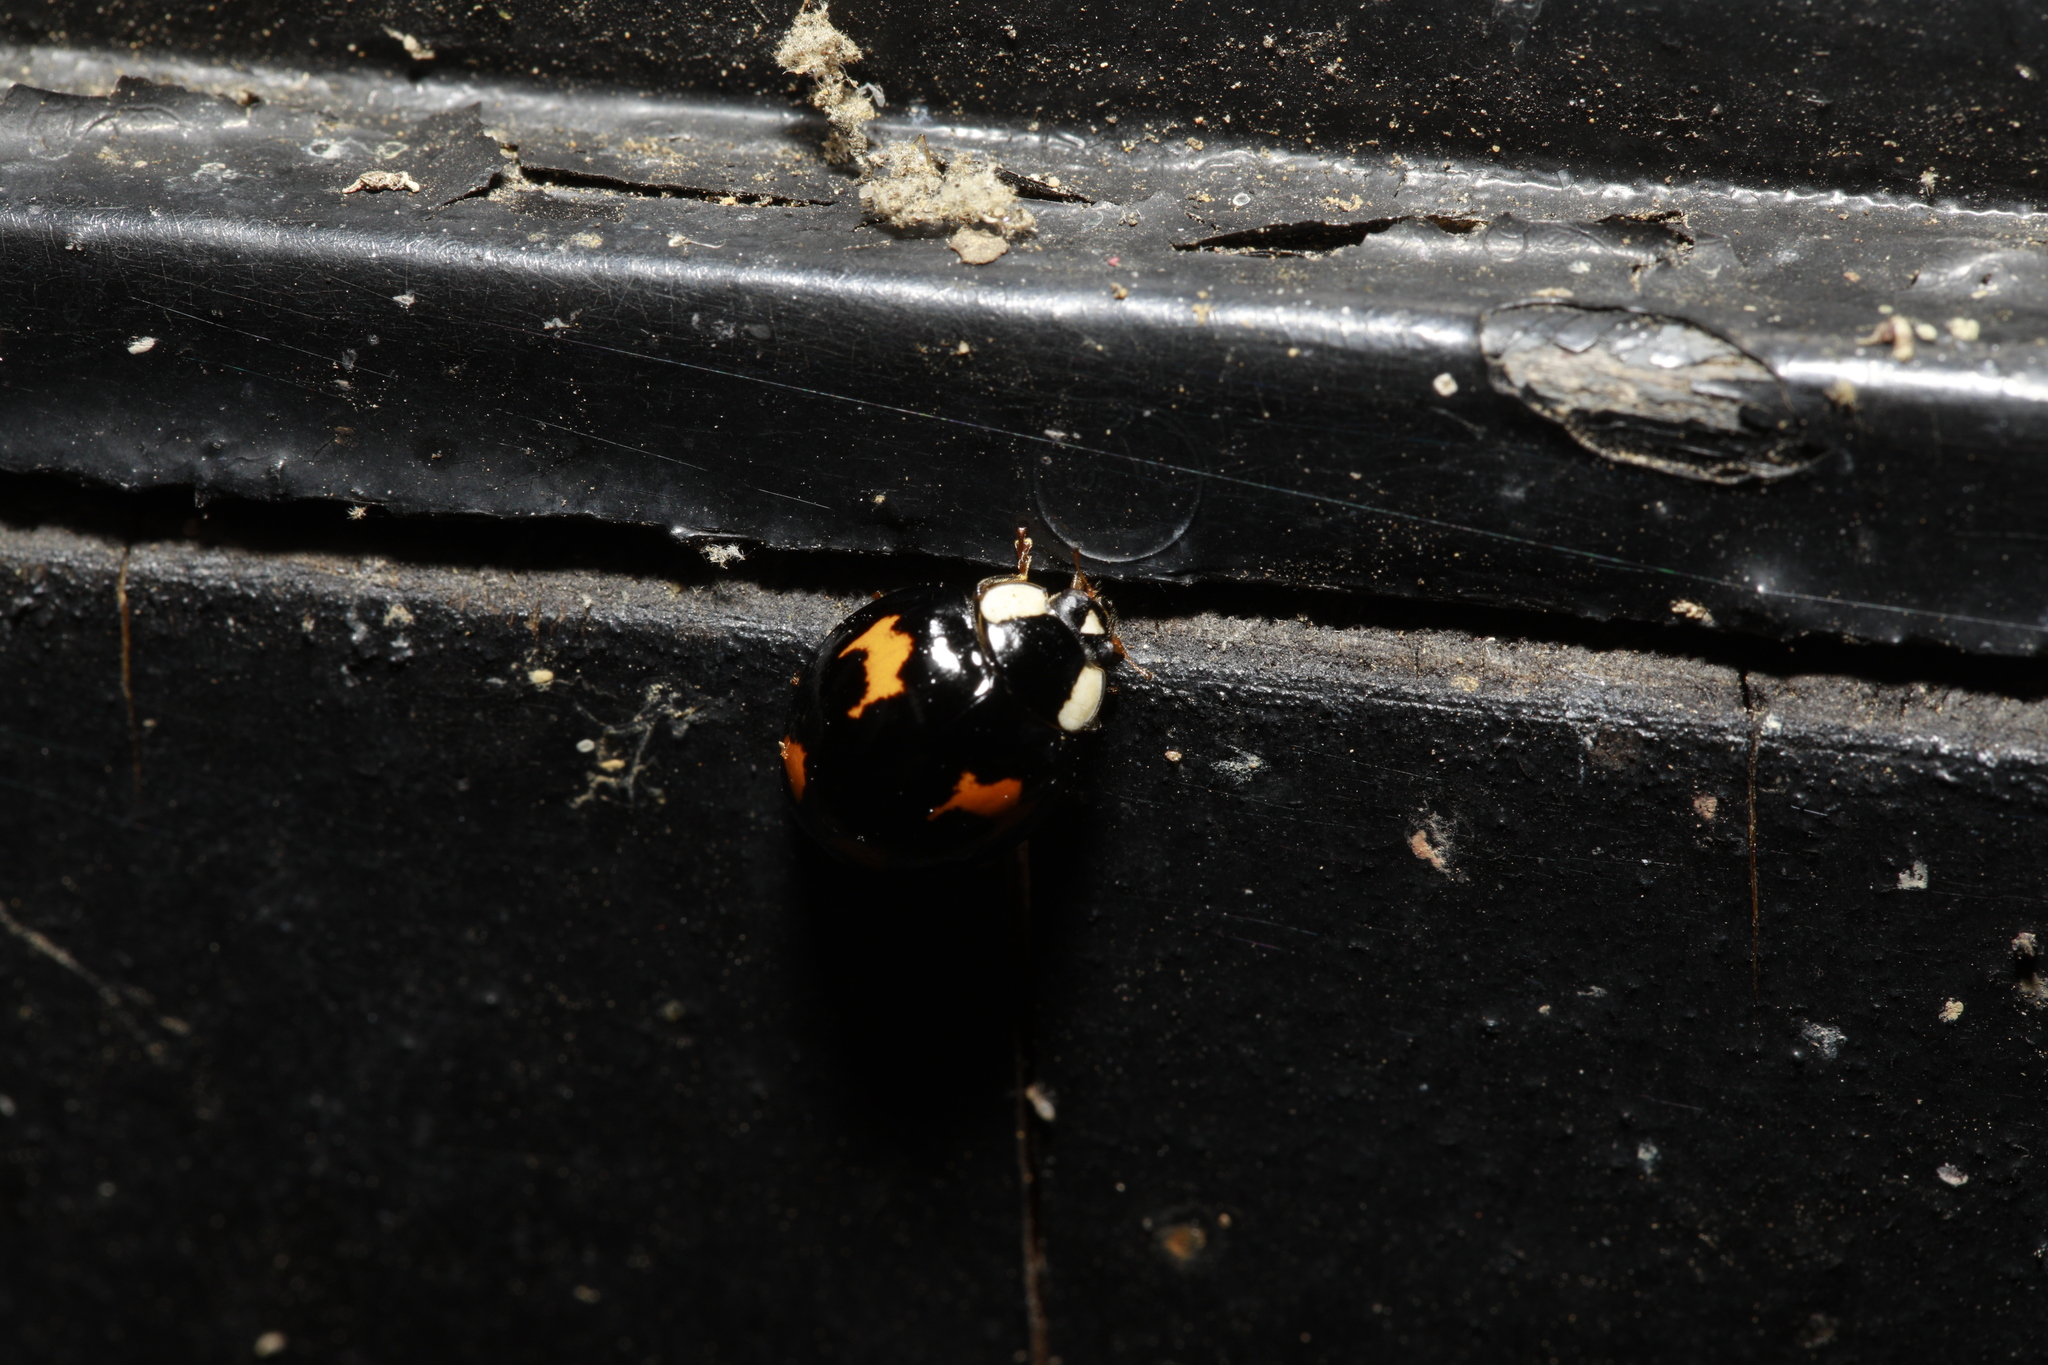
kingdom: Animalia
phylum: Arthropoda
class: Insecta
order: Coleoptera
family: Coccinellidae
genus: Harmonia
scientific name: Harmonia axyridis
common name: Harlequin ladybird
